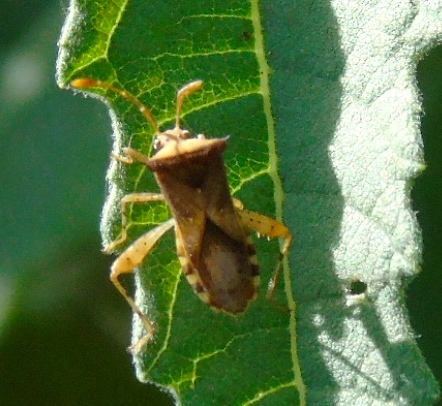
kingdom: Animalia
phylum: Arthropoda
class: Insecta
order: Hemiptera
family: Coreidae
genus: Zicca
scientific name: Zicca taeniola
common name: Leaf-footed bug
